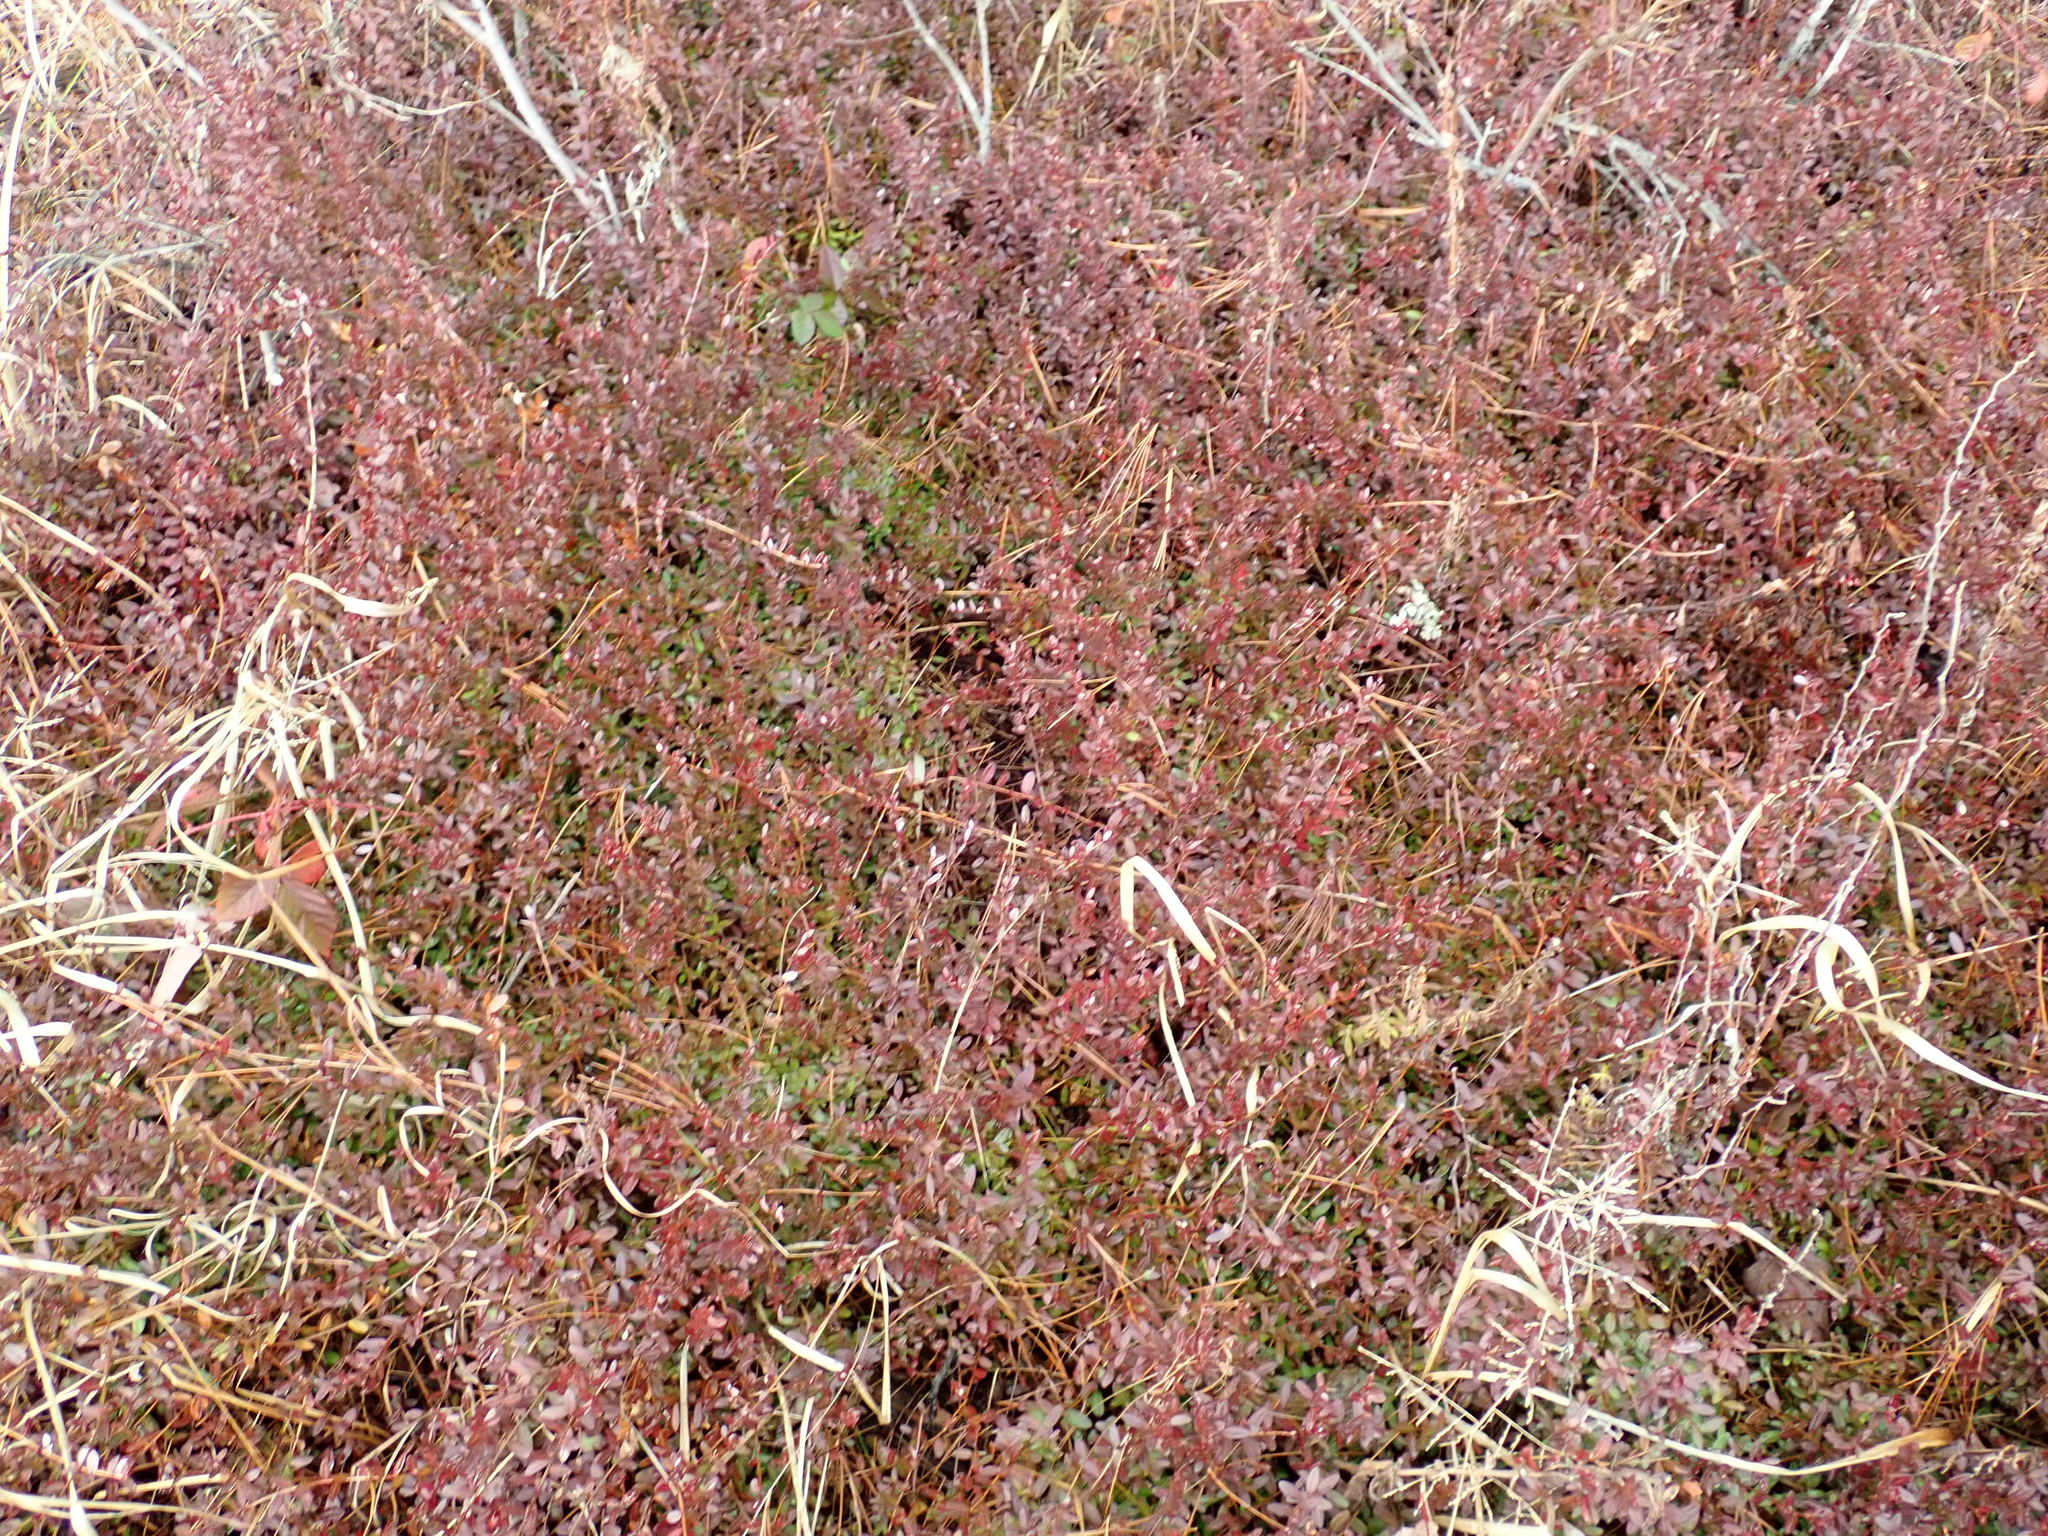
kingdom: Plantae
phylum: Tracheophyta
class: Magnoliopsida
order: Ericales
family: Ericaceae
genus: Vaccinium
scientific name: Vaccinium macrocarpon
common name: American cranberry
